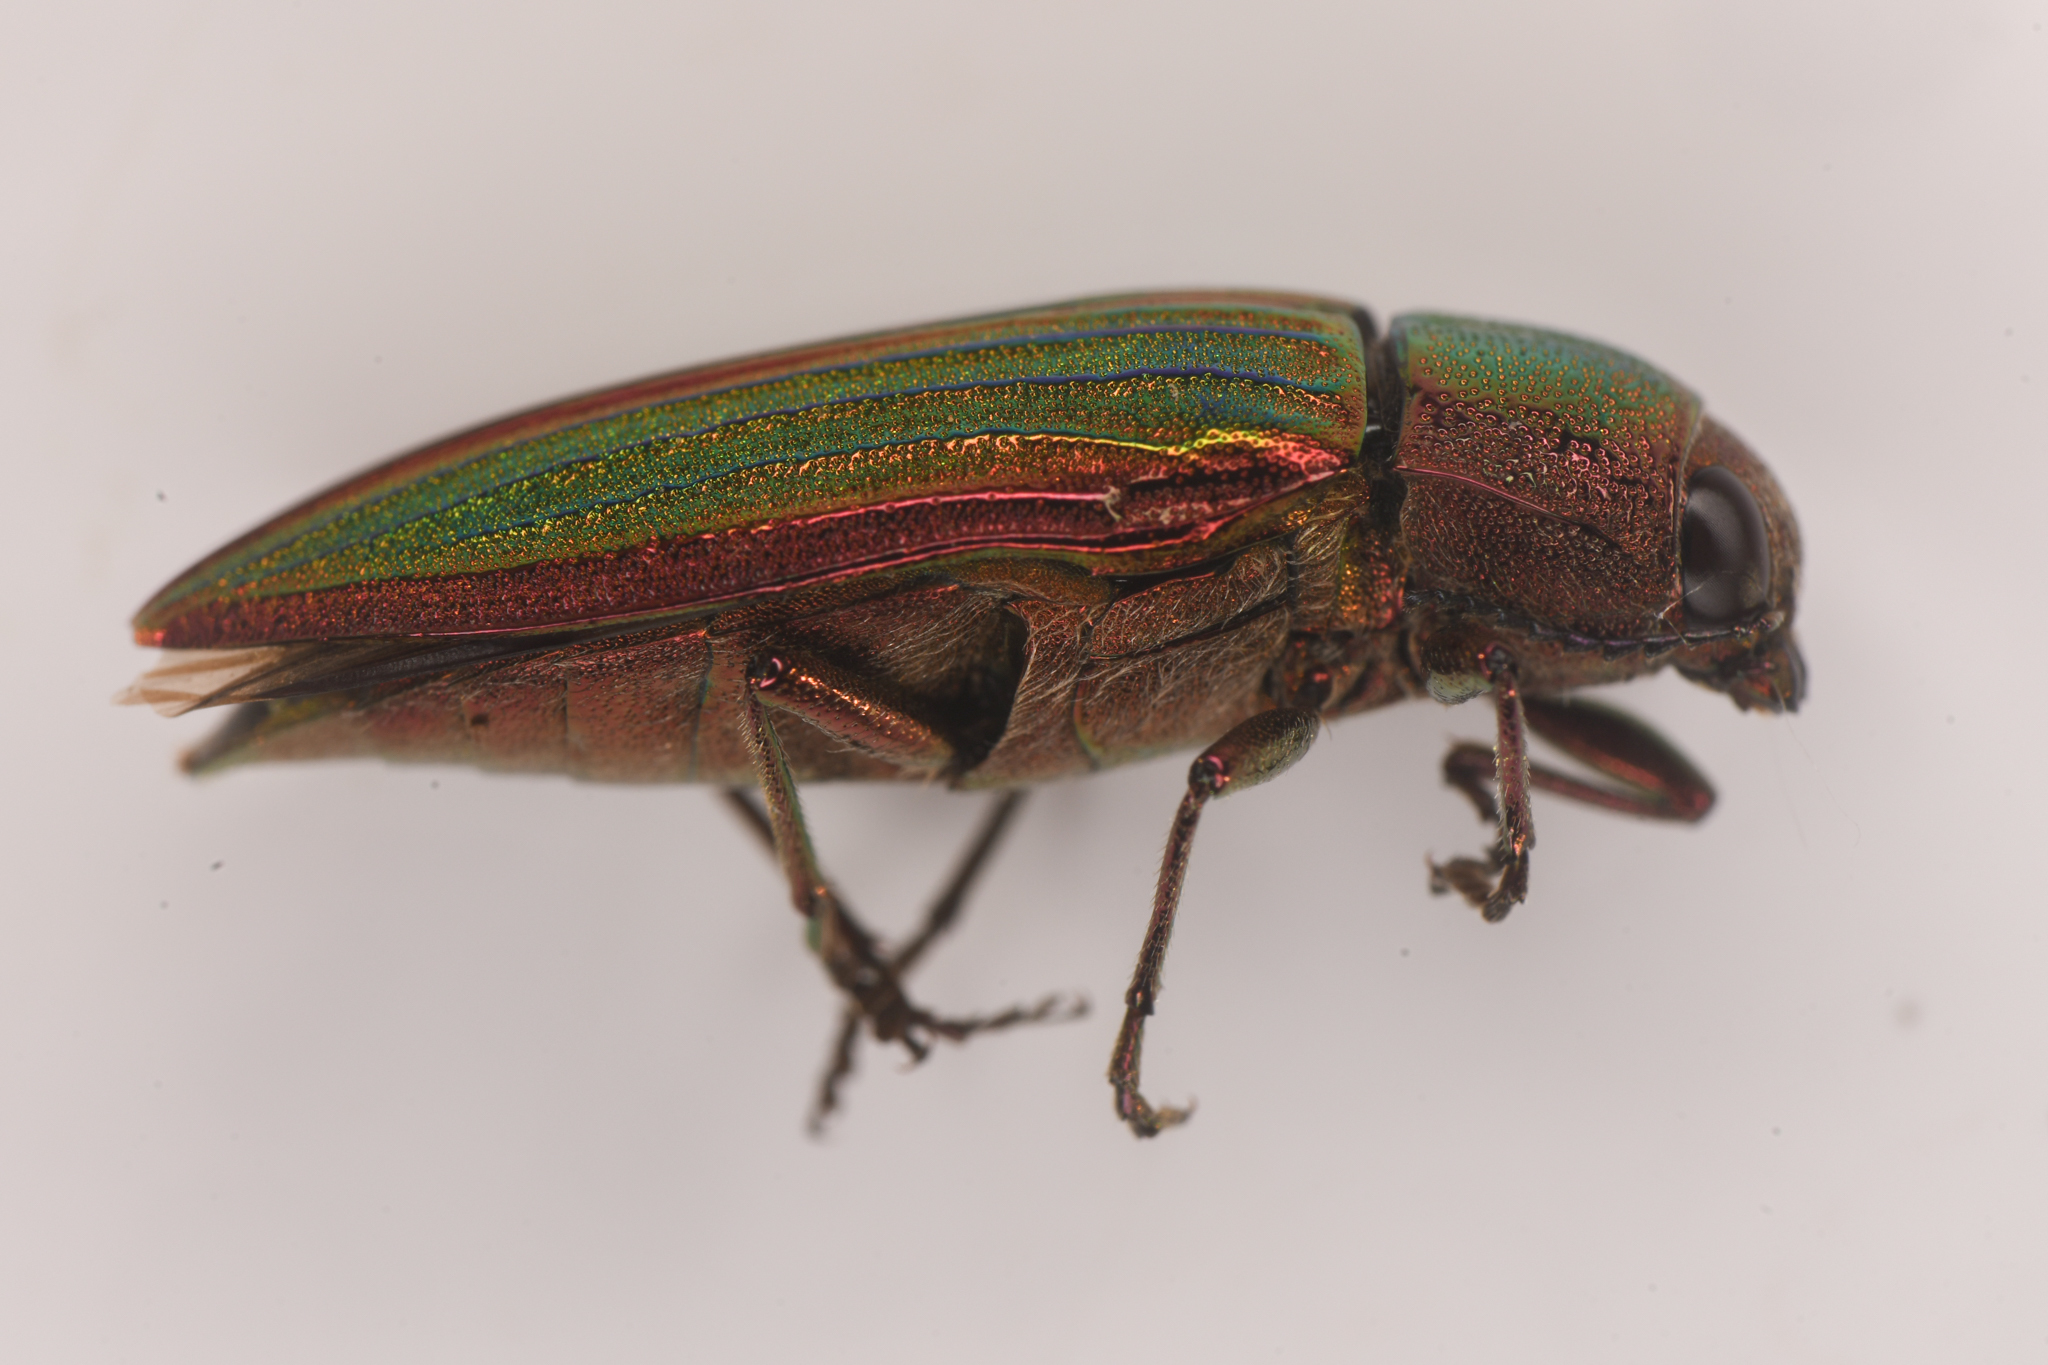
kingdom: Animalia
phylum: Arthropoda
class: Insecta
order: Coleoptera
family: Buprestidae
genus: Buprestis
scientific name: Buprestis aurulenta
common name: Golden buprestid
